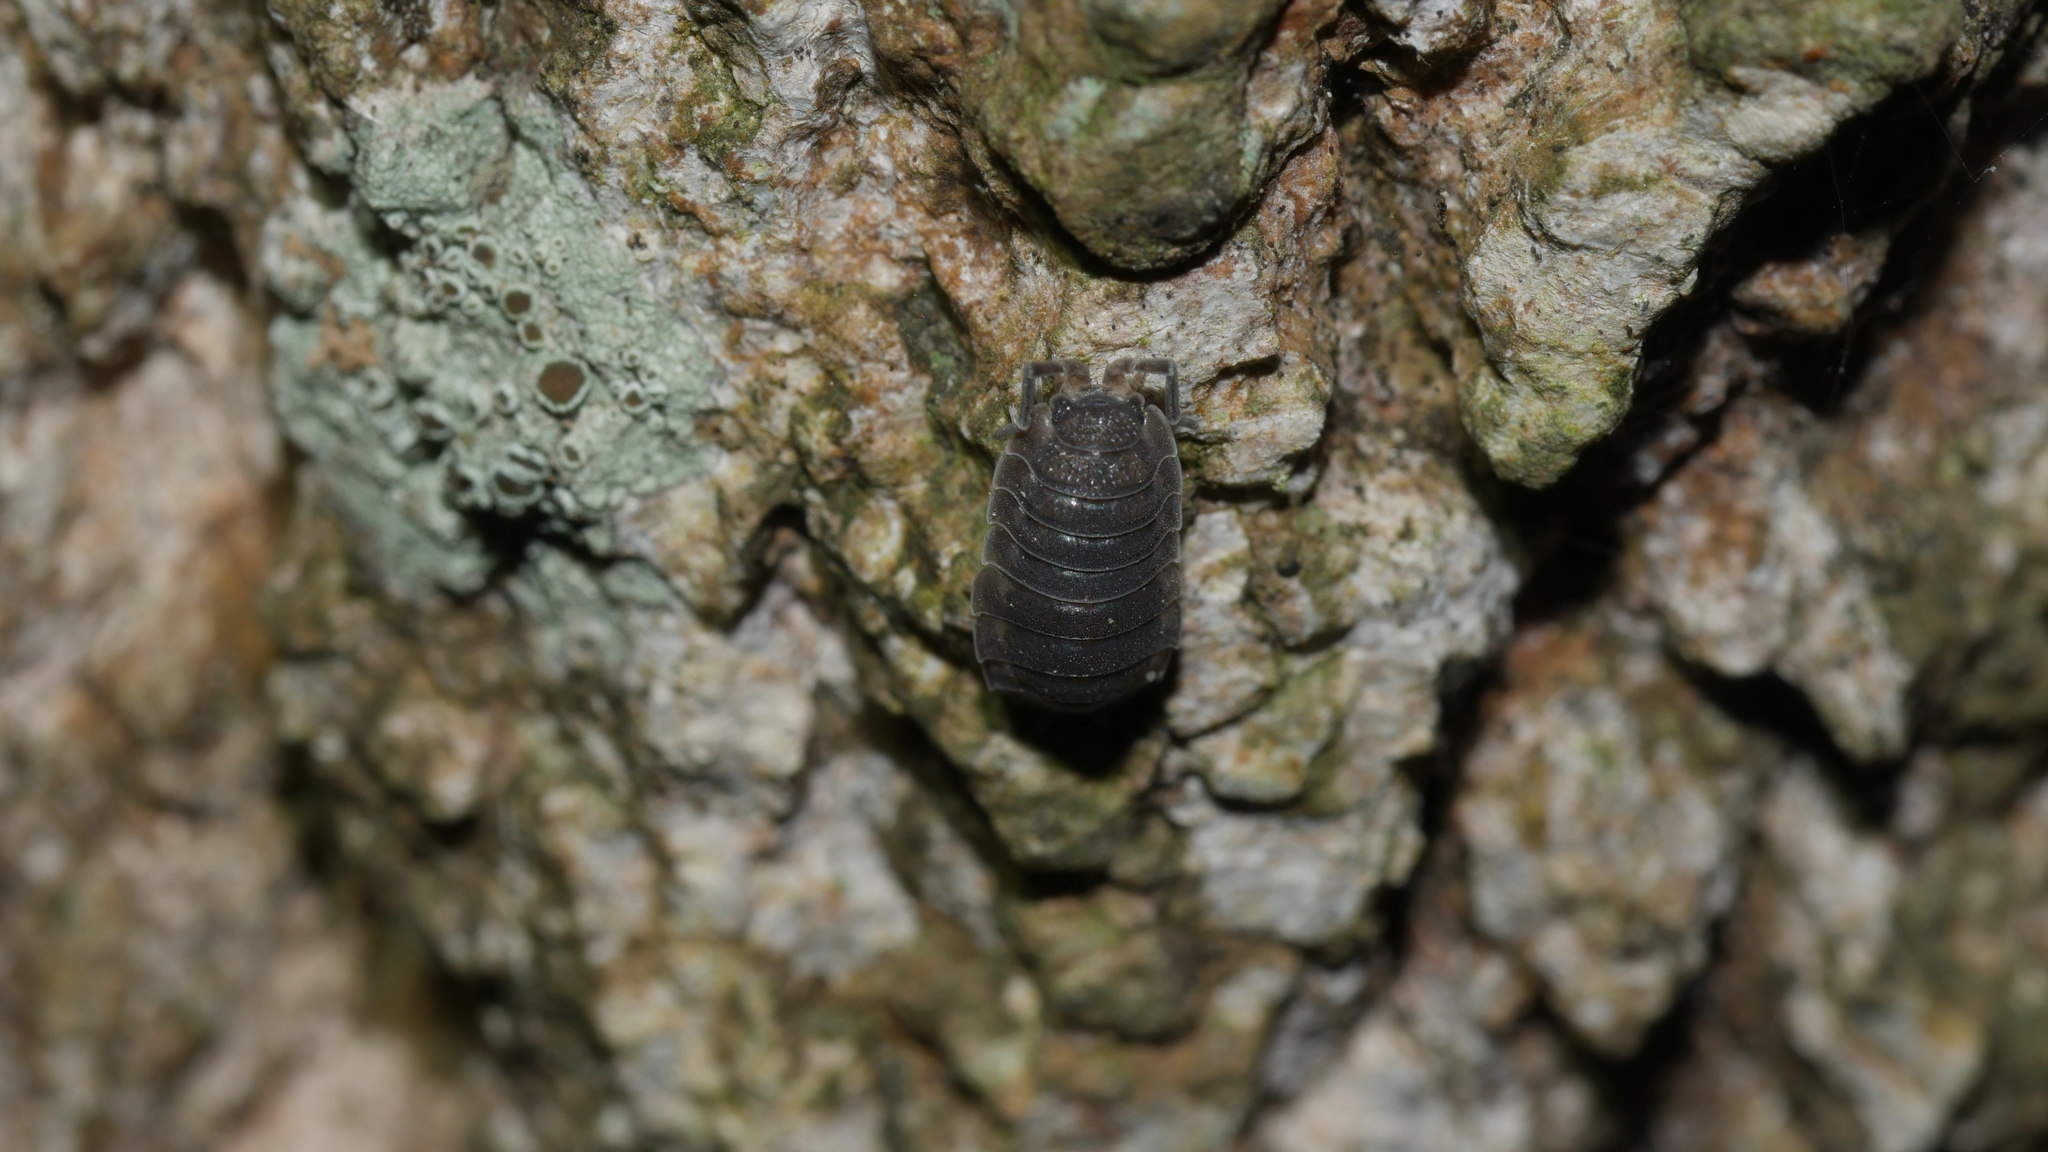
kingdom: Animalia
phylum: Arthropoda
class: Malacostraca
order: Isopoda
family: Porcellionidae
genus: Porcellio
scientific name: Porcellio scaber
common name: Common rough woodlouse
